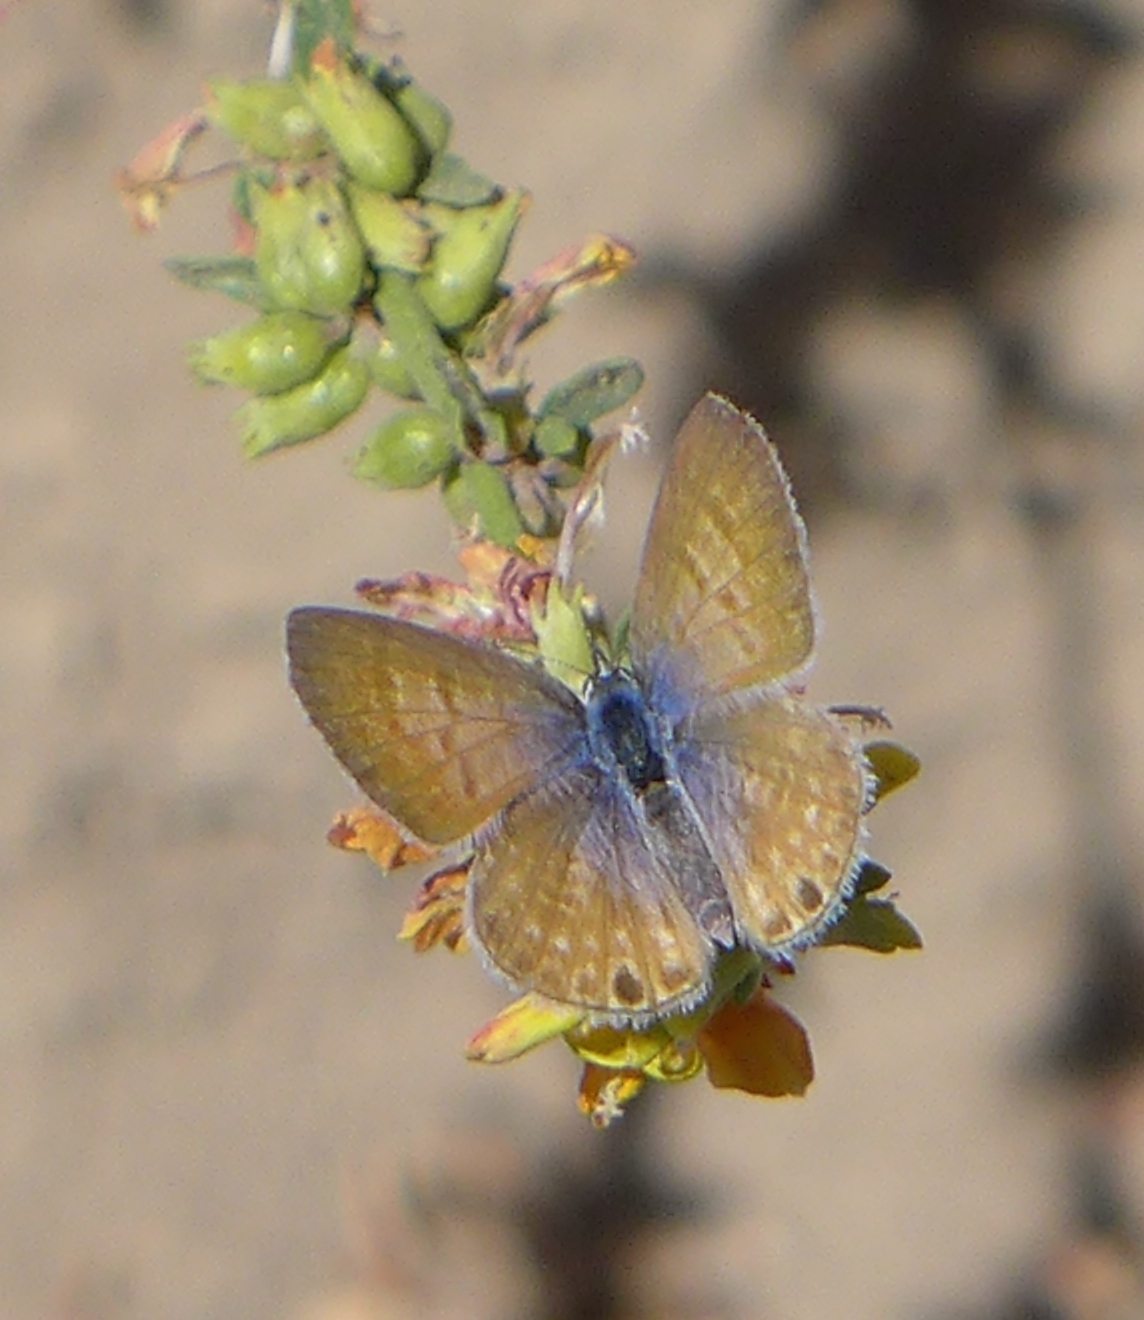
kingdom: Animalia
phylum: Arthropoda
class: Insecta
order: Lepidoptera
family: Lycaenidae
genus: Leptotes
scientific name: Leptotes marina
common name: Marine blue
